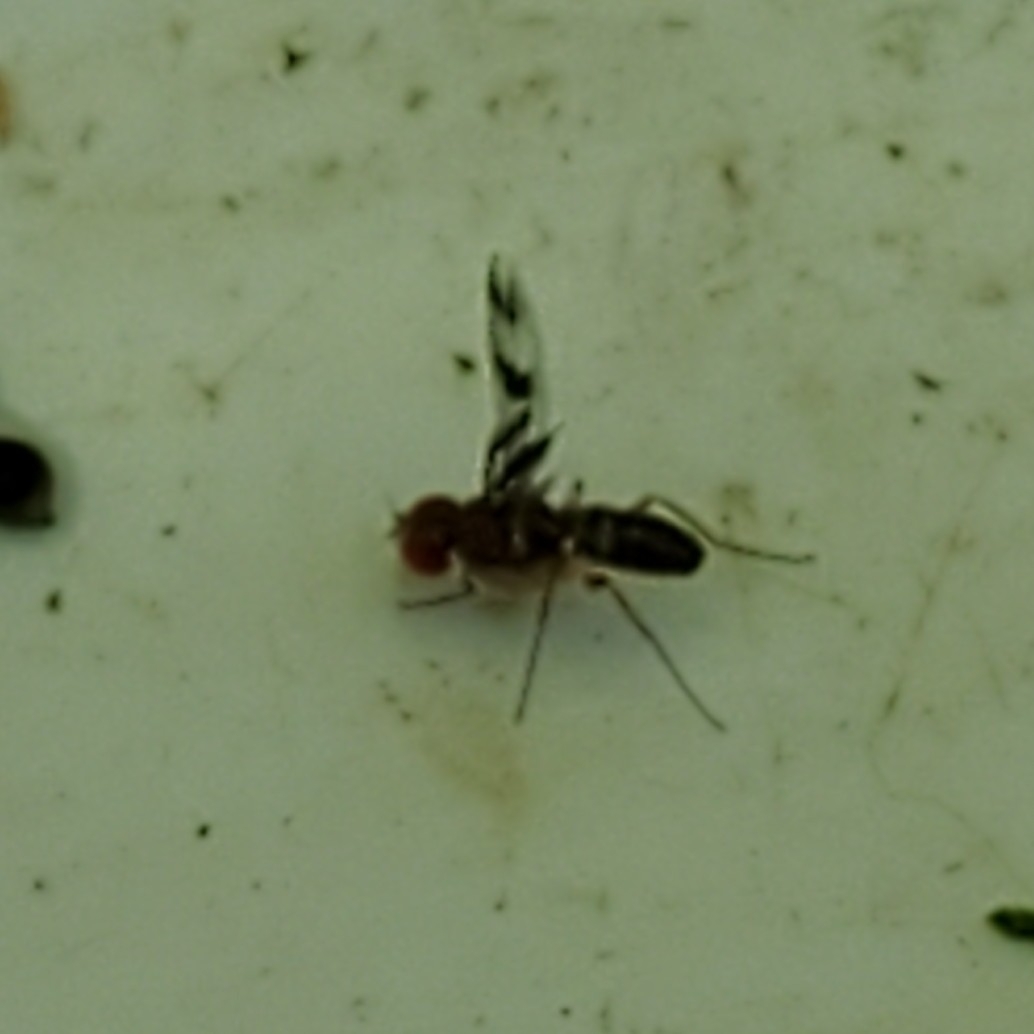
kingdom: Animalia
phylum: Arthropoda
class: Insecta
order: Diptera
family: Drosophilidae
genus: Chymomyza
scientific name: Chymomyza amoena
